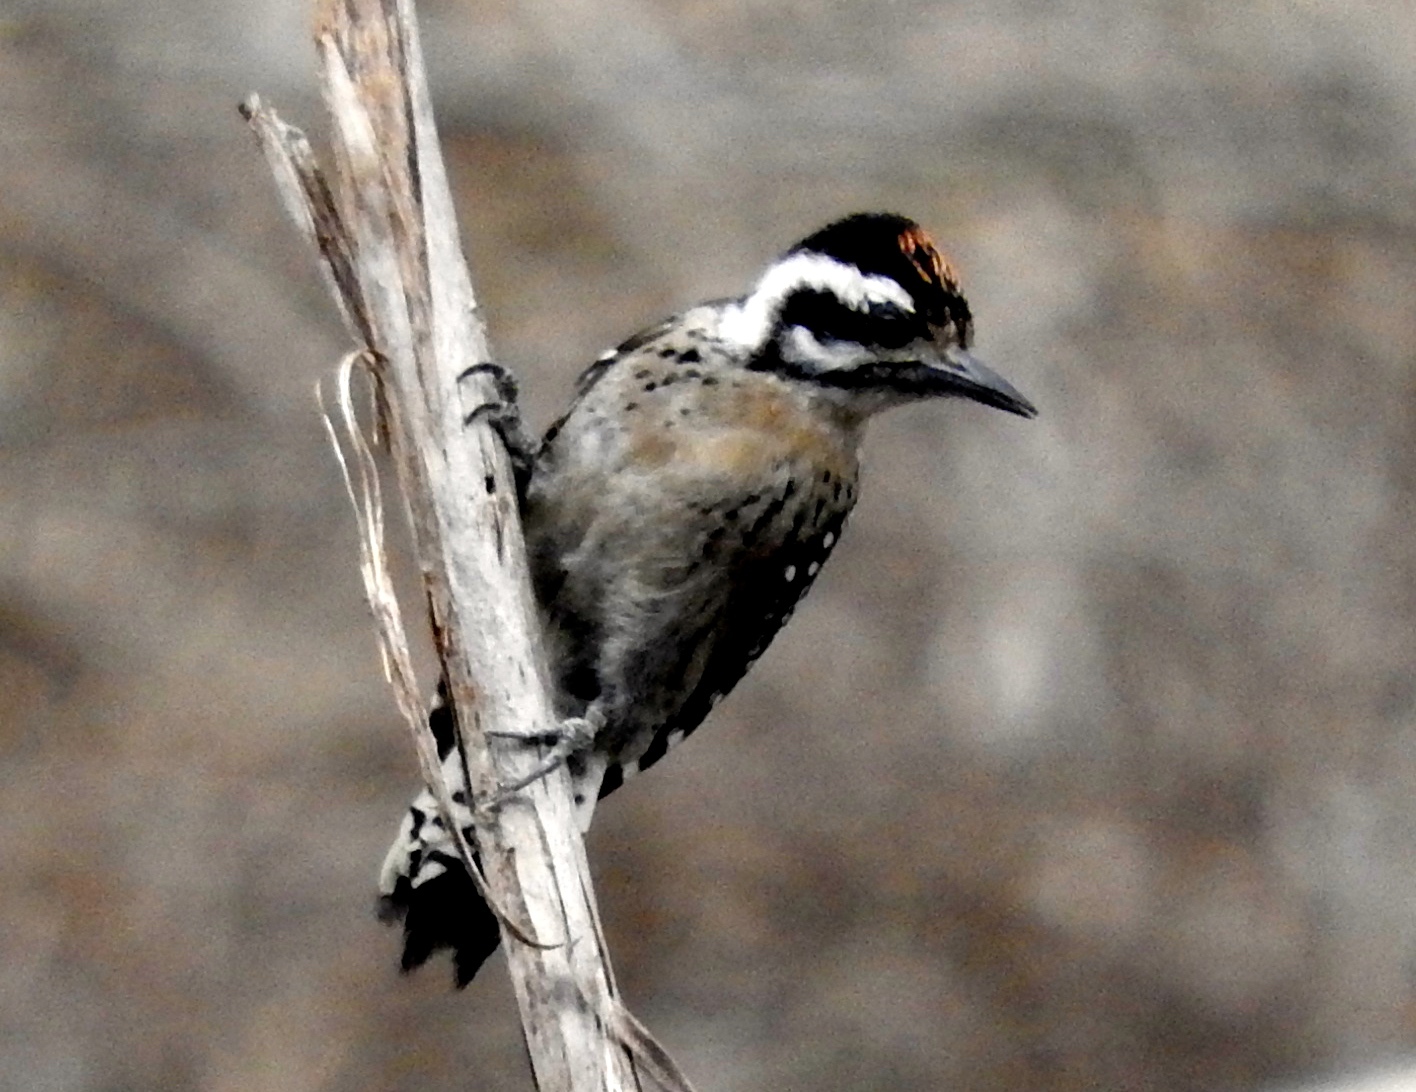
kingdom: Animalia
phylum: Chordata
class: Aves
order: Piciformes
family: Picidae
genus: Dryobates
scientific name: Dryobates scalaris
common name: Ladder-backed woodpecker
